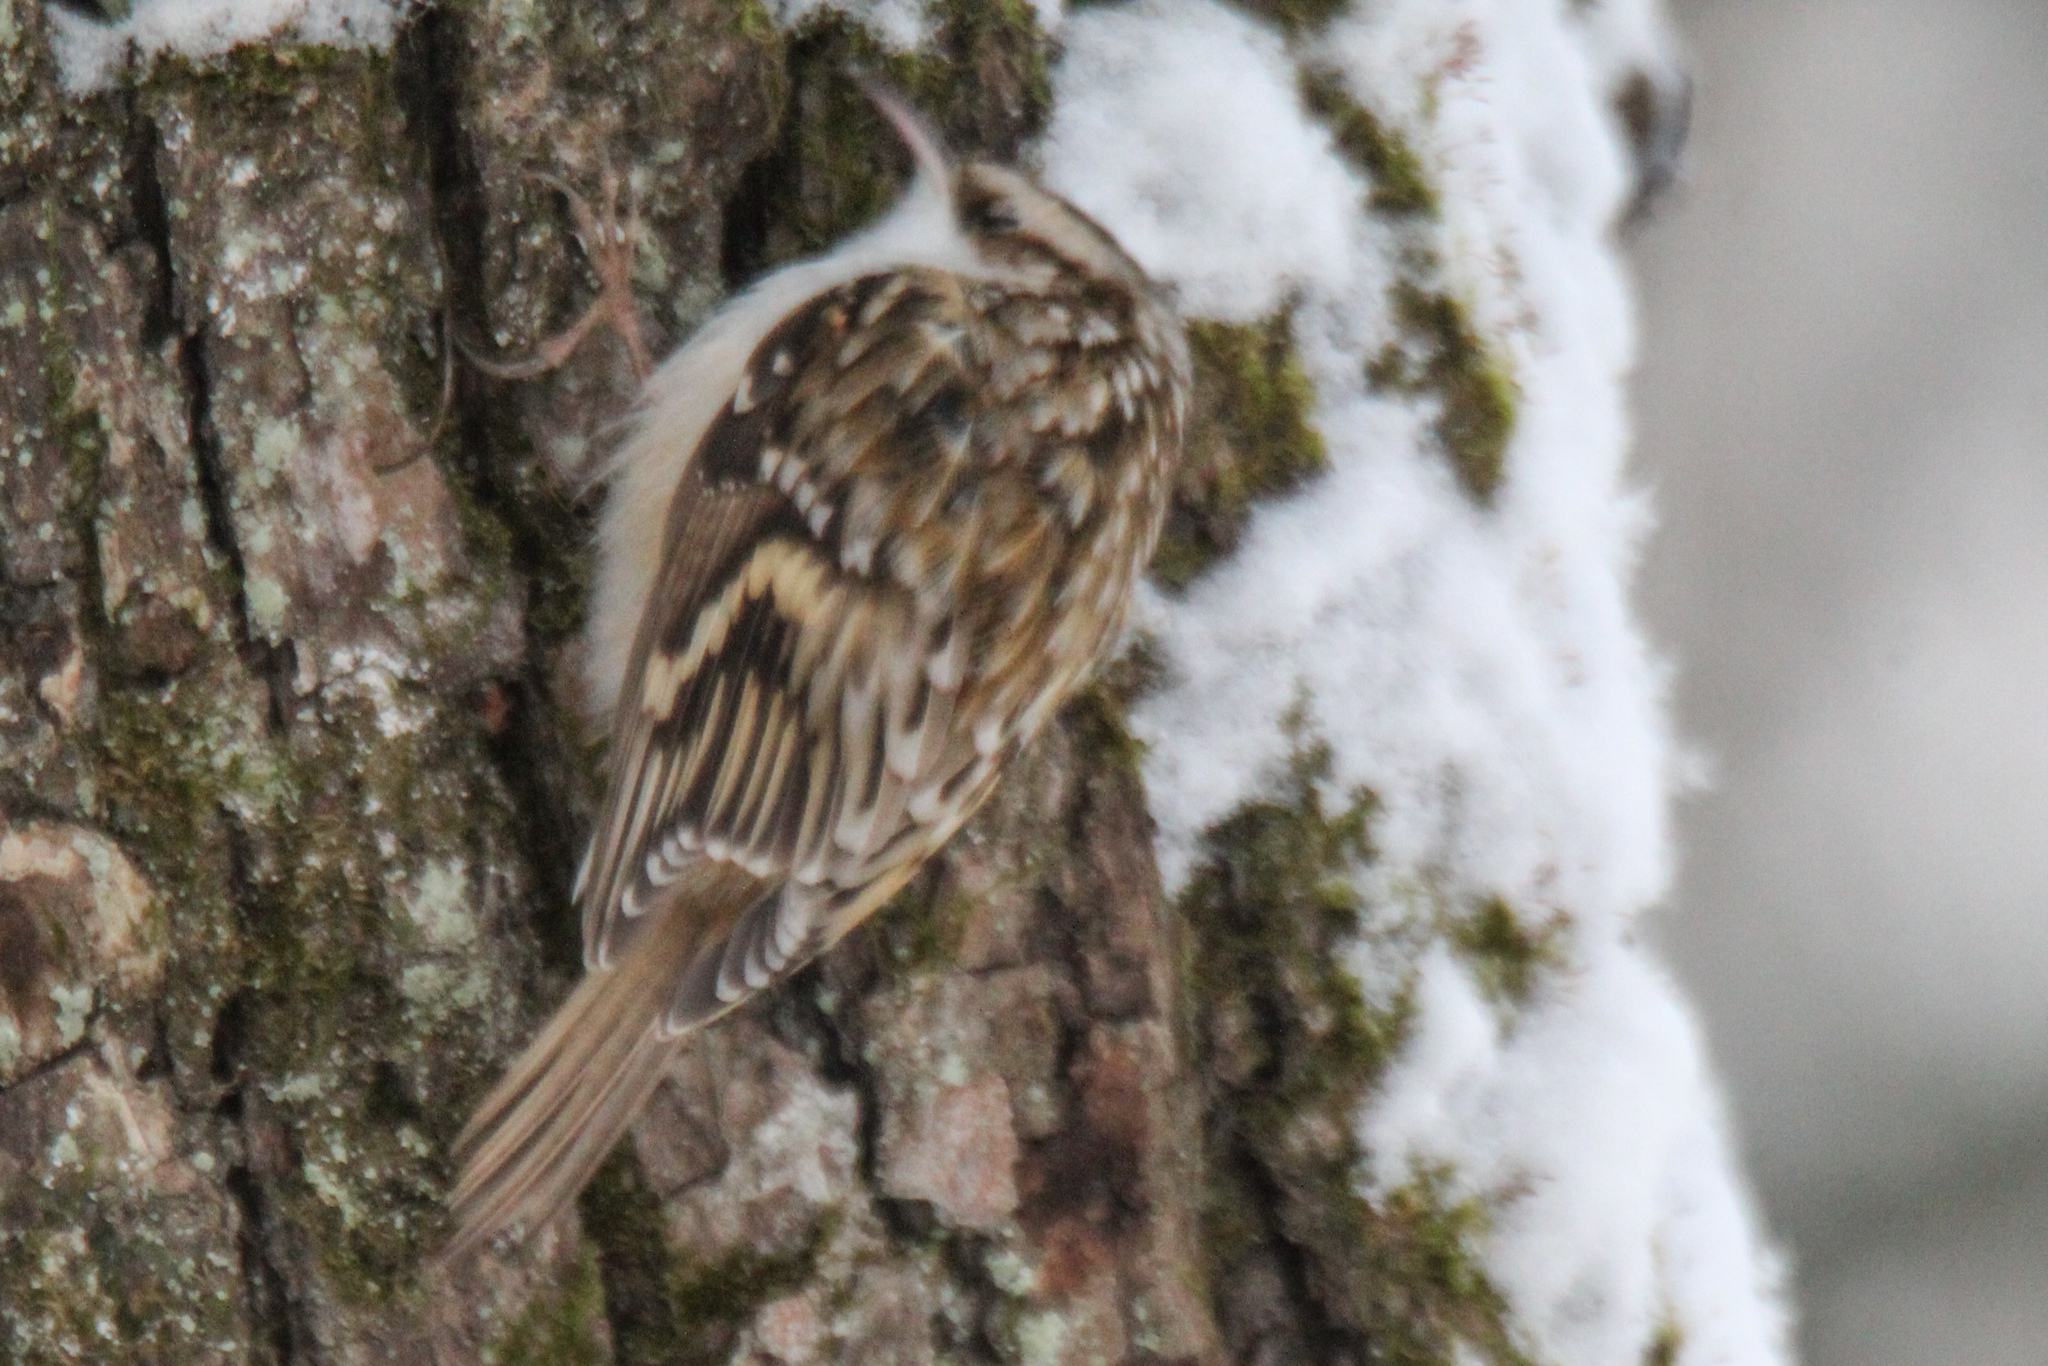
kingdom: Animalia
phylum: Chordata
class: Aves
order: Passeriformes
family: Certhiidae
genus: Certhia
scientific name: Certhia familiaris
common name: Eurasian treecreeper
